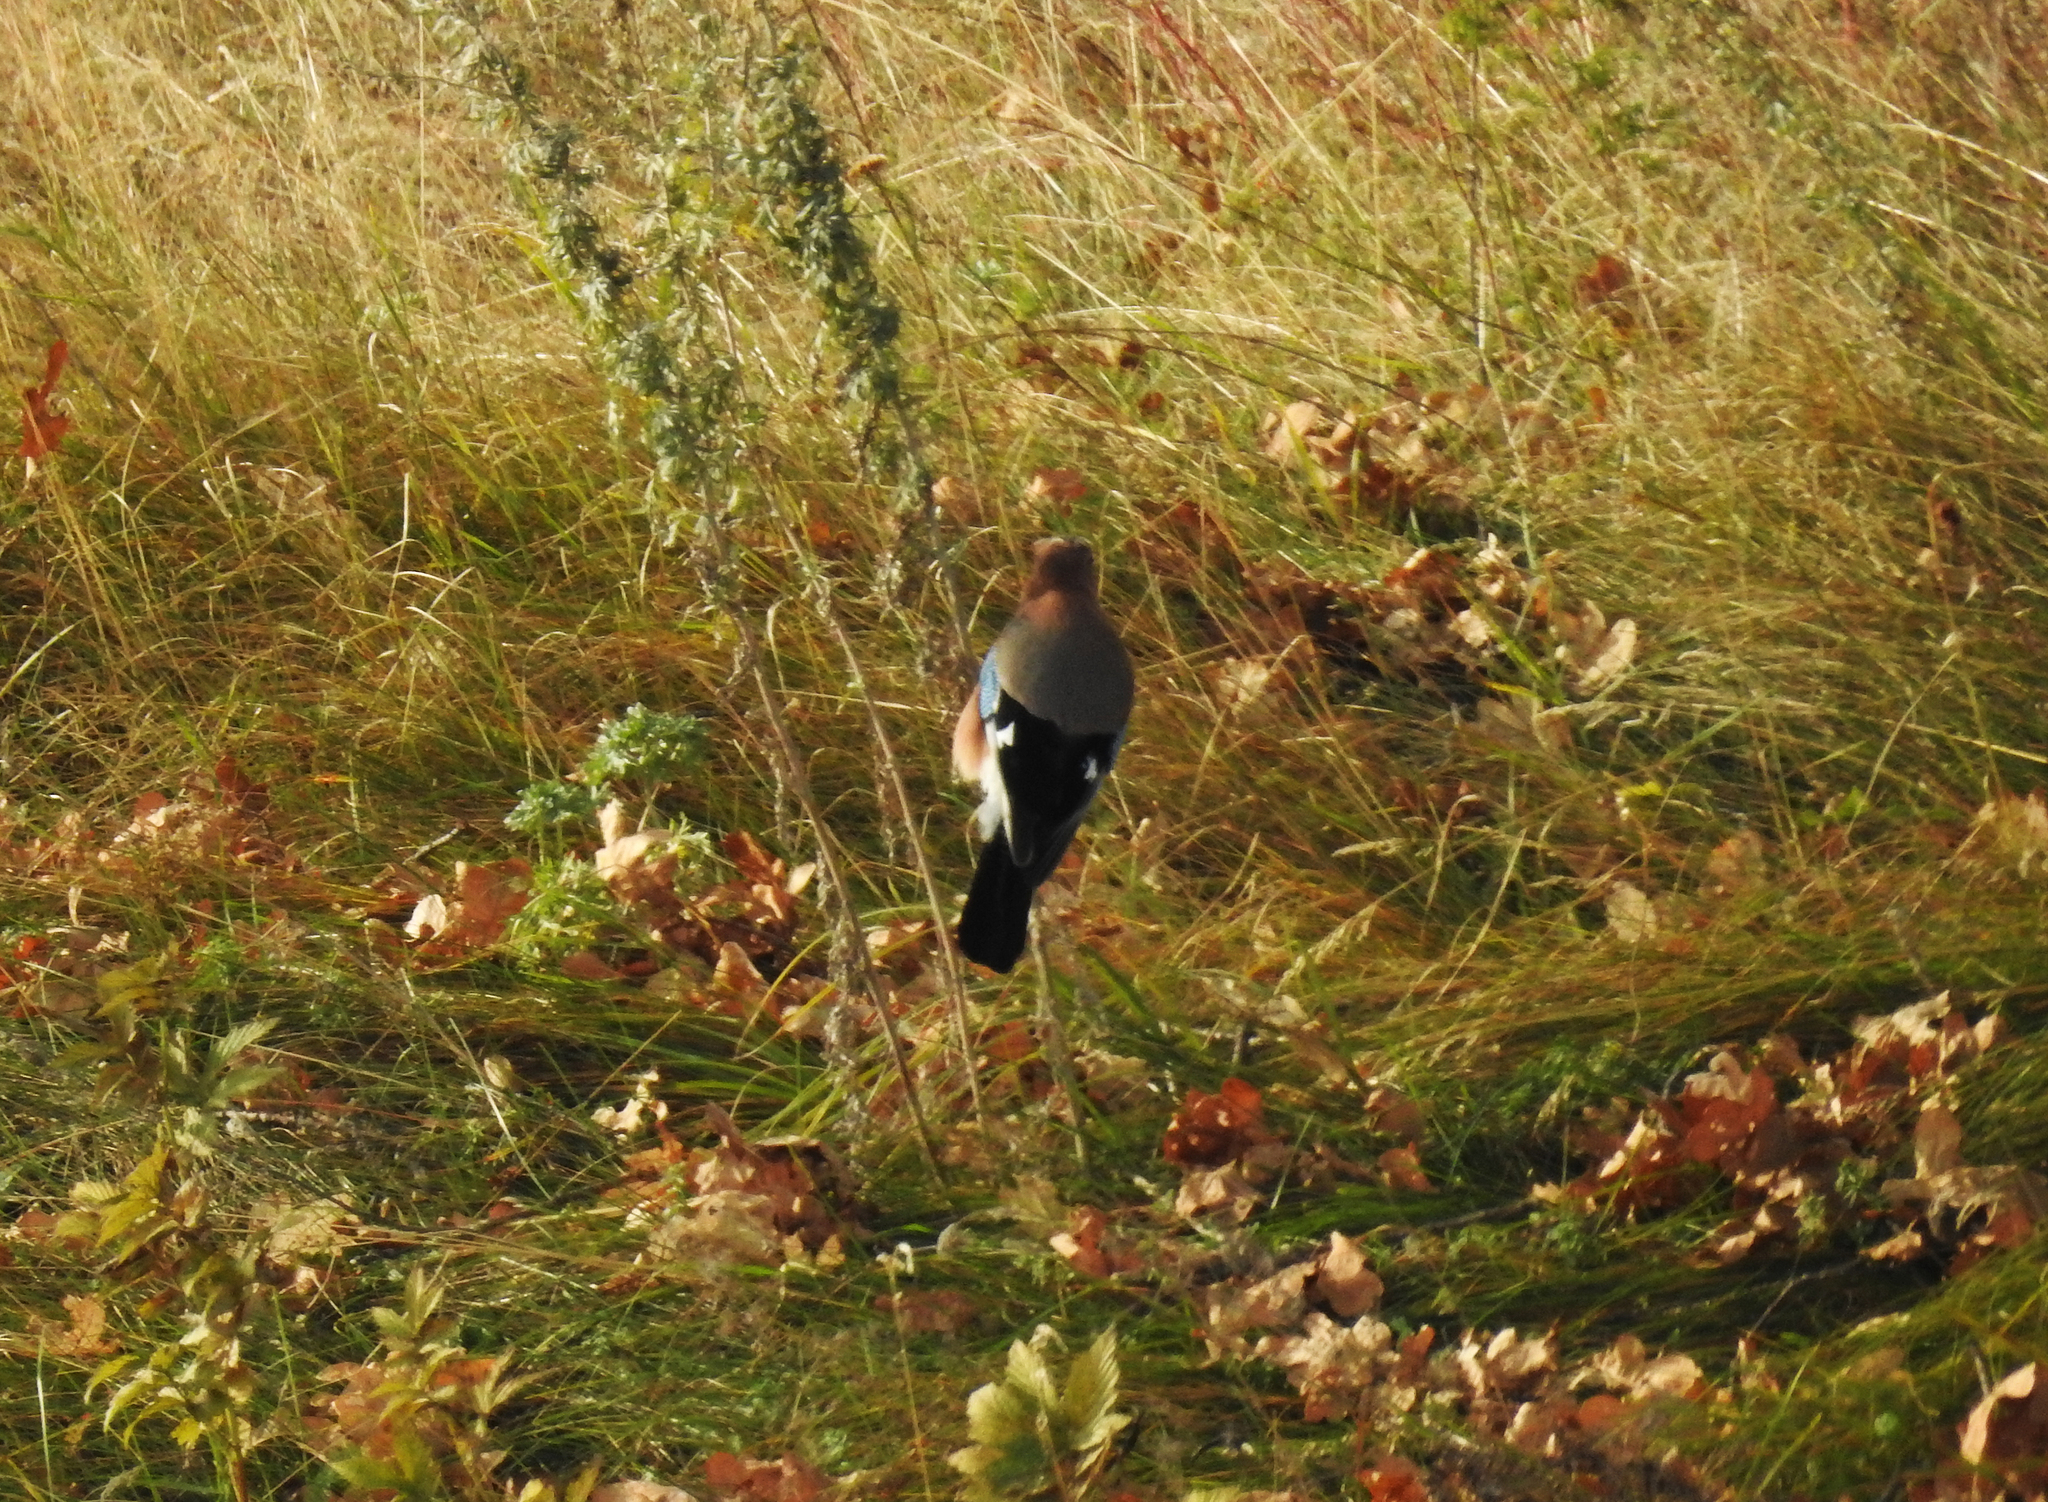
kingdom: Animalia
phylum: Chordata
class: Aves
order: Passeriformes
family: Corvidae
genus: Garrulus
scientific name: Garrulus glandarius
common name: Eurasian jay
